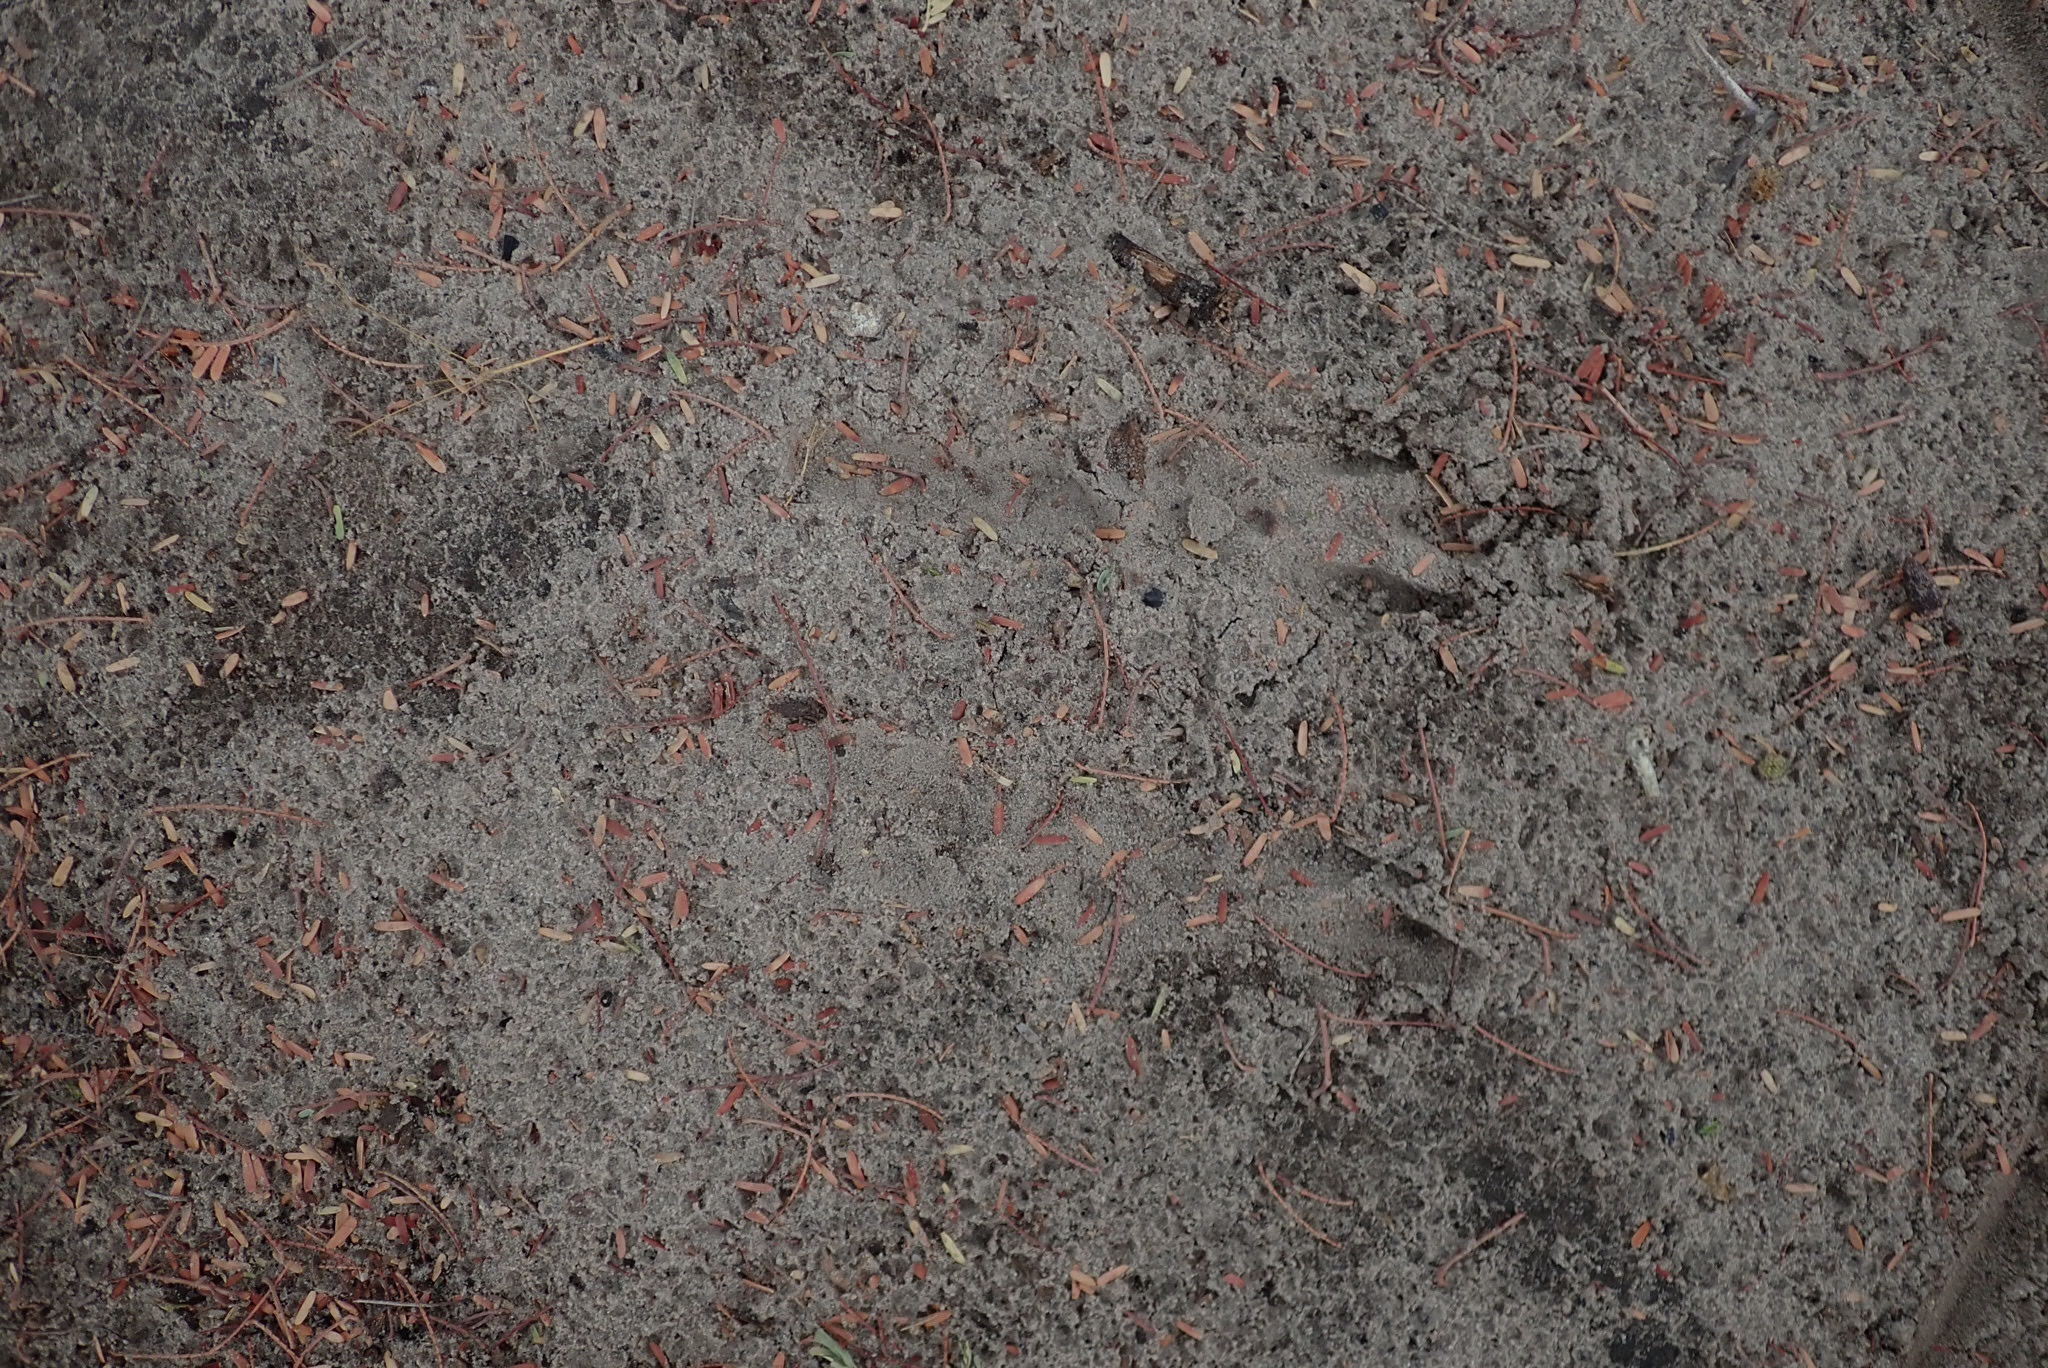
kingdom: Animalia
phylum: Chordata
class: Mammalia
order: Rodentia
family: Pedetidae
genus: Pedetes
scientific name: Pedetes capensis
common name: South african spring hare
